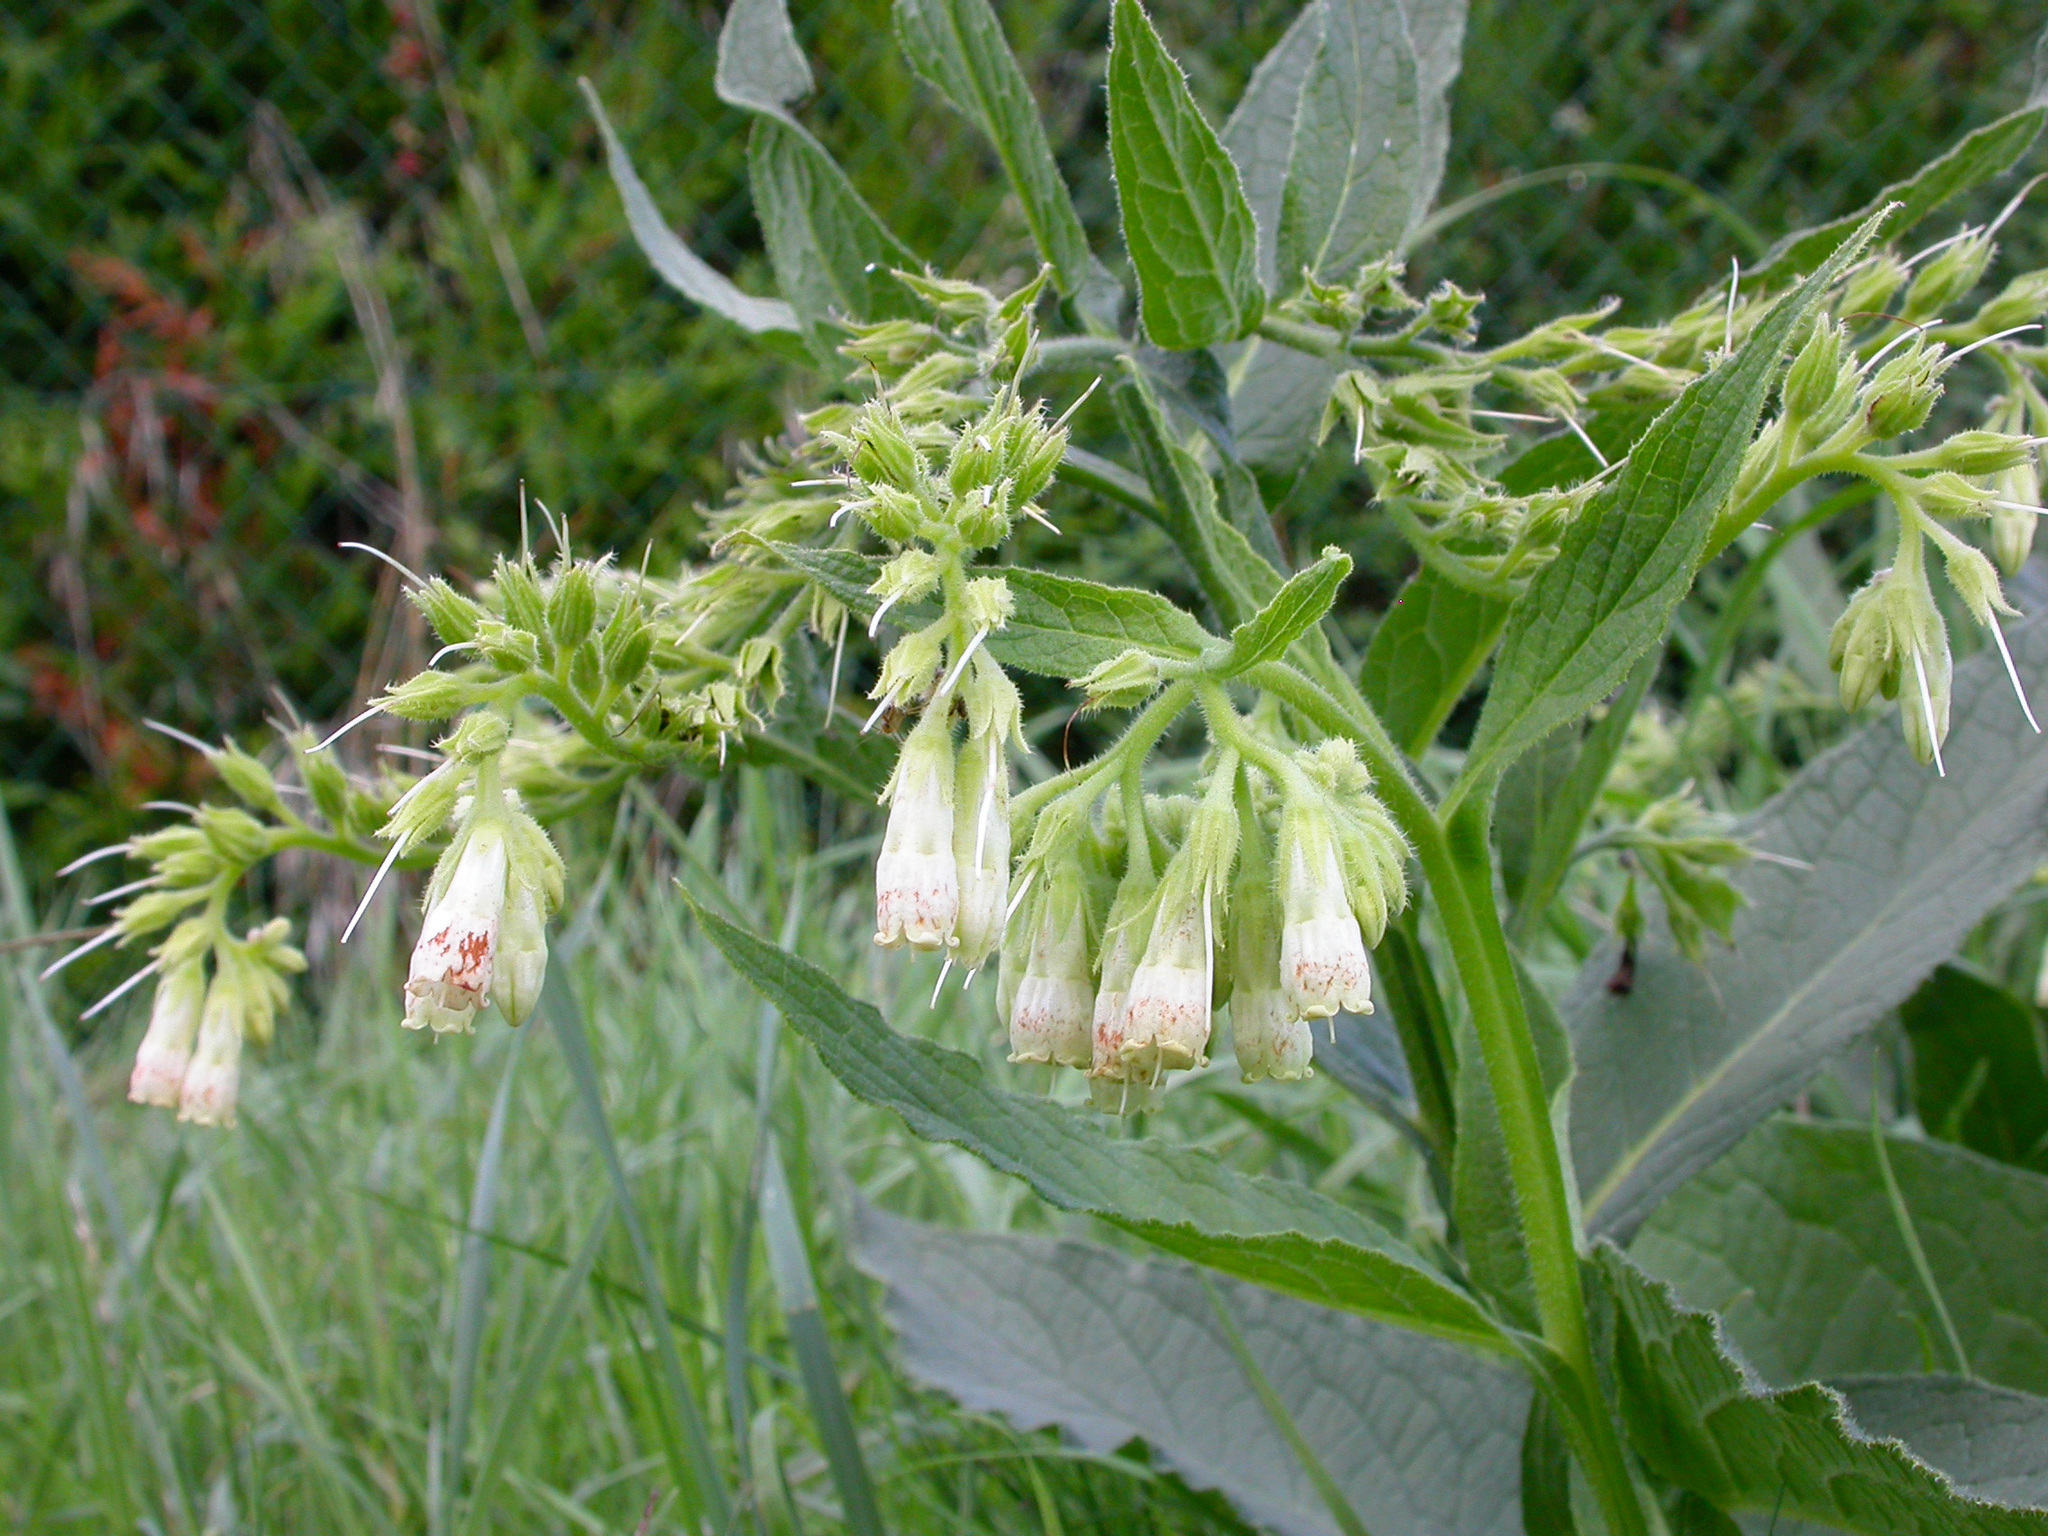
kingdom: Plantae
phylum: Tracheophyta
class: Magnoliopsida
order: Boraginales
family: Boraginaceae
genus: Symphytum
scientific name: Symphytum officinale
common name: Common comfrey
